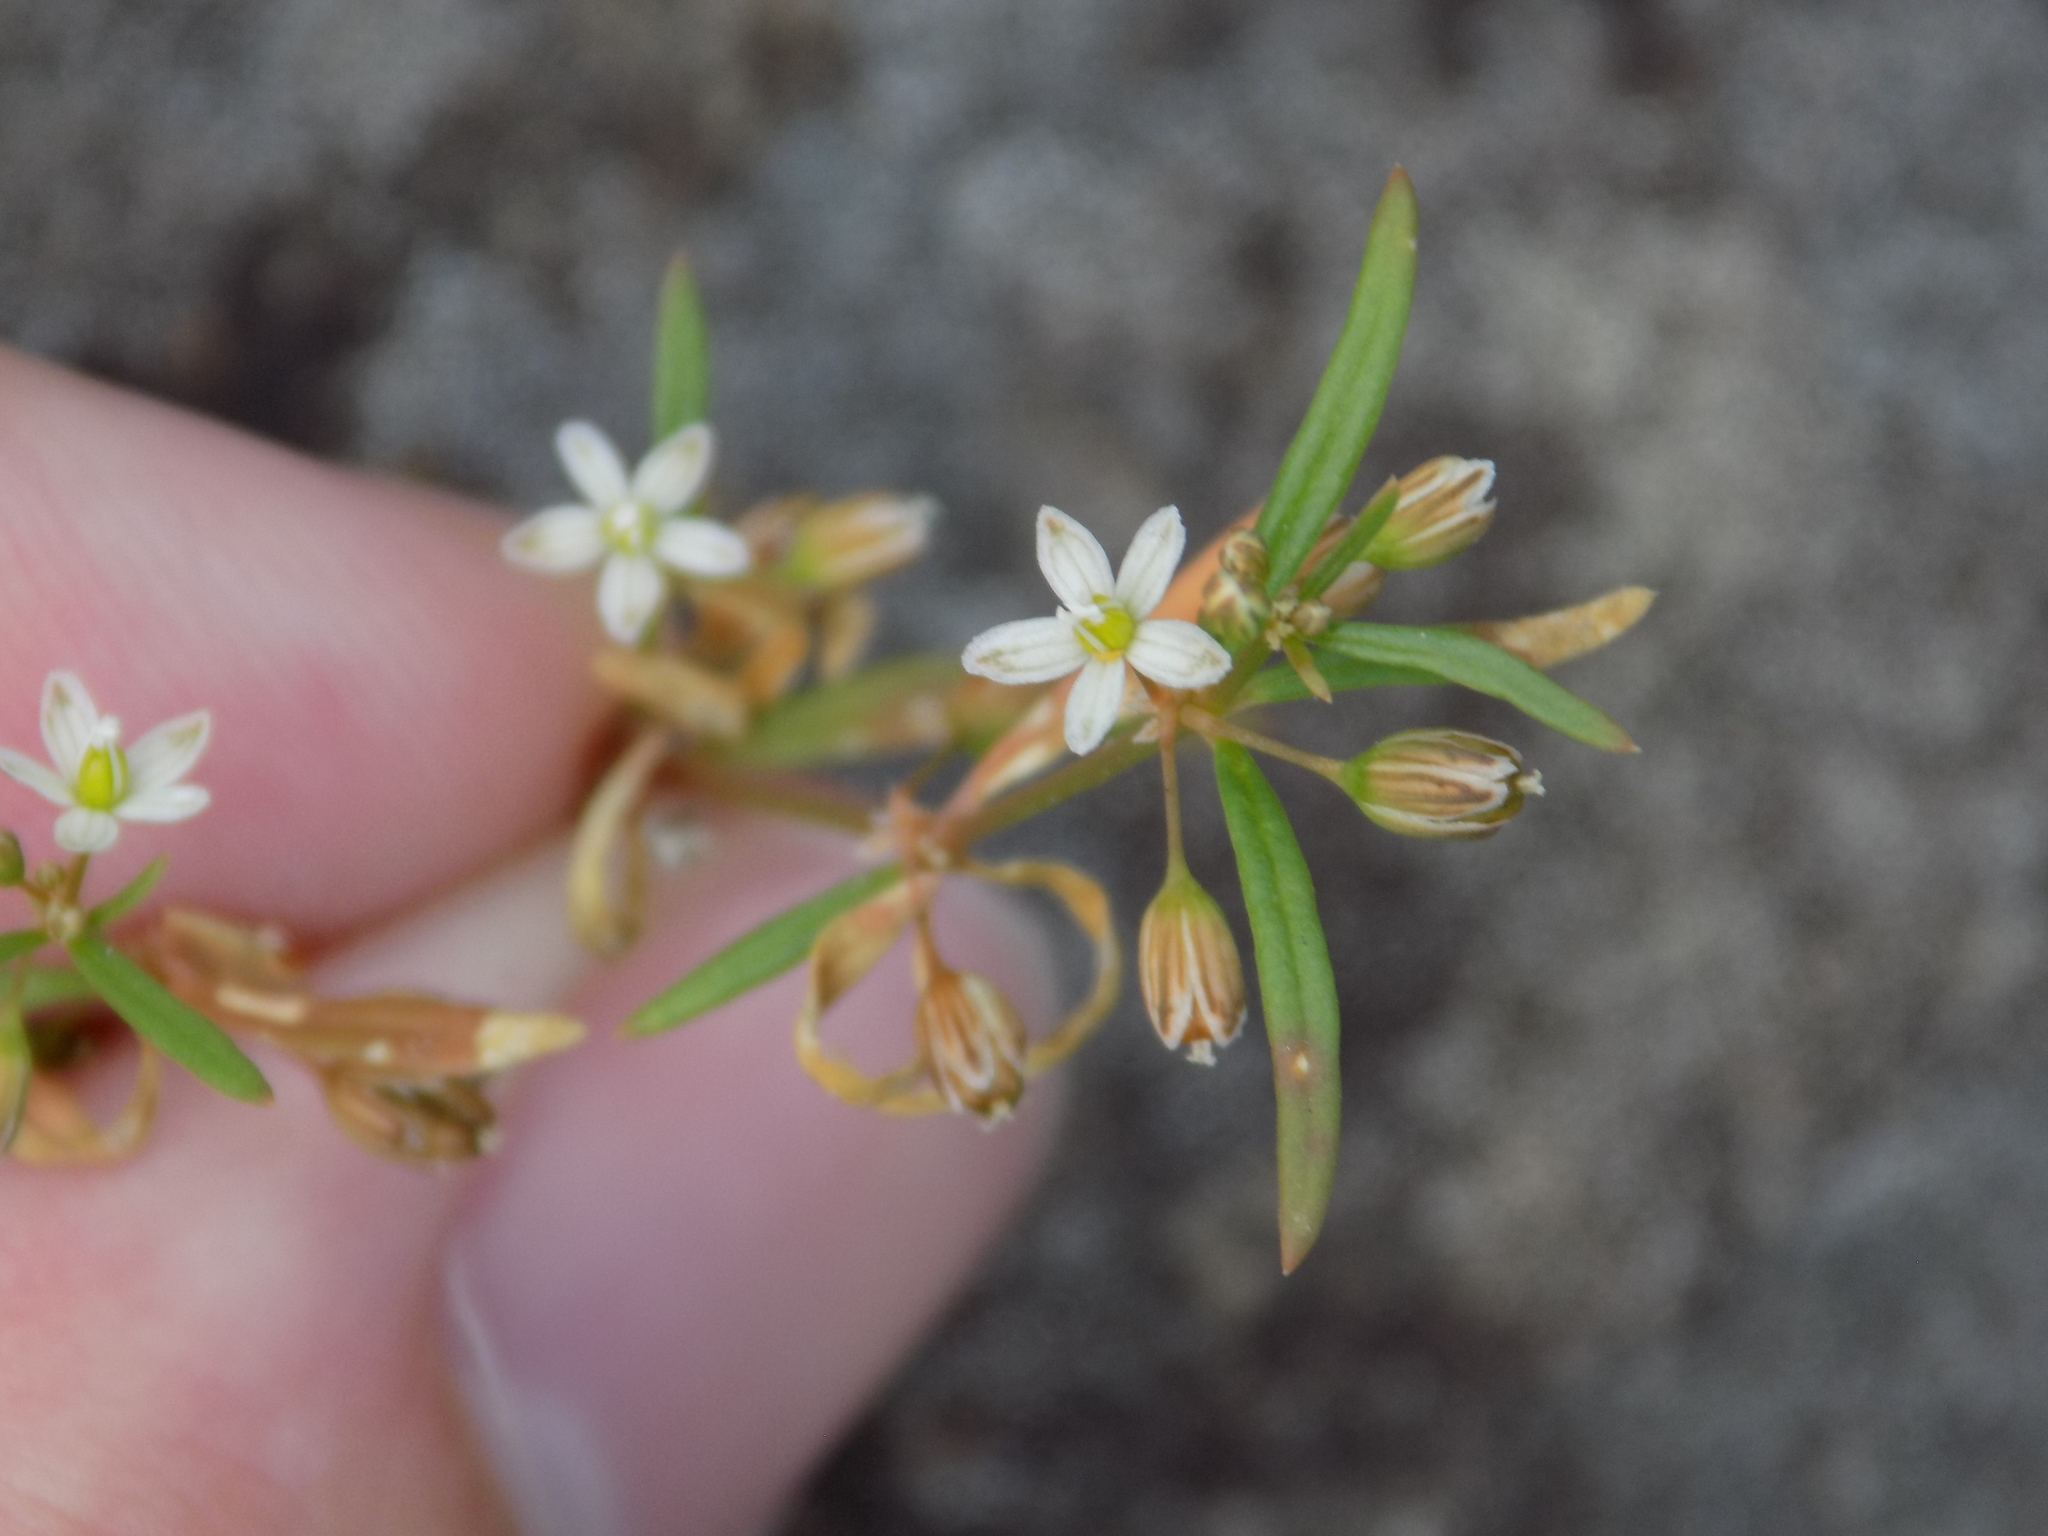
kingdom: Plantae
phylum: Tracheophyta
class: Magnoliopsida
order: Caryophyllales
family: Molluginaceae
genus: Mollugo
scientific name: Mollugo verticillata
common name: Green carpetweed
